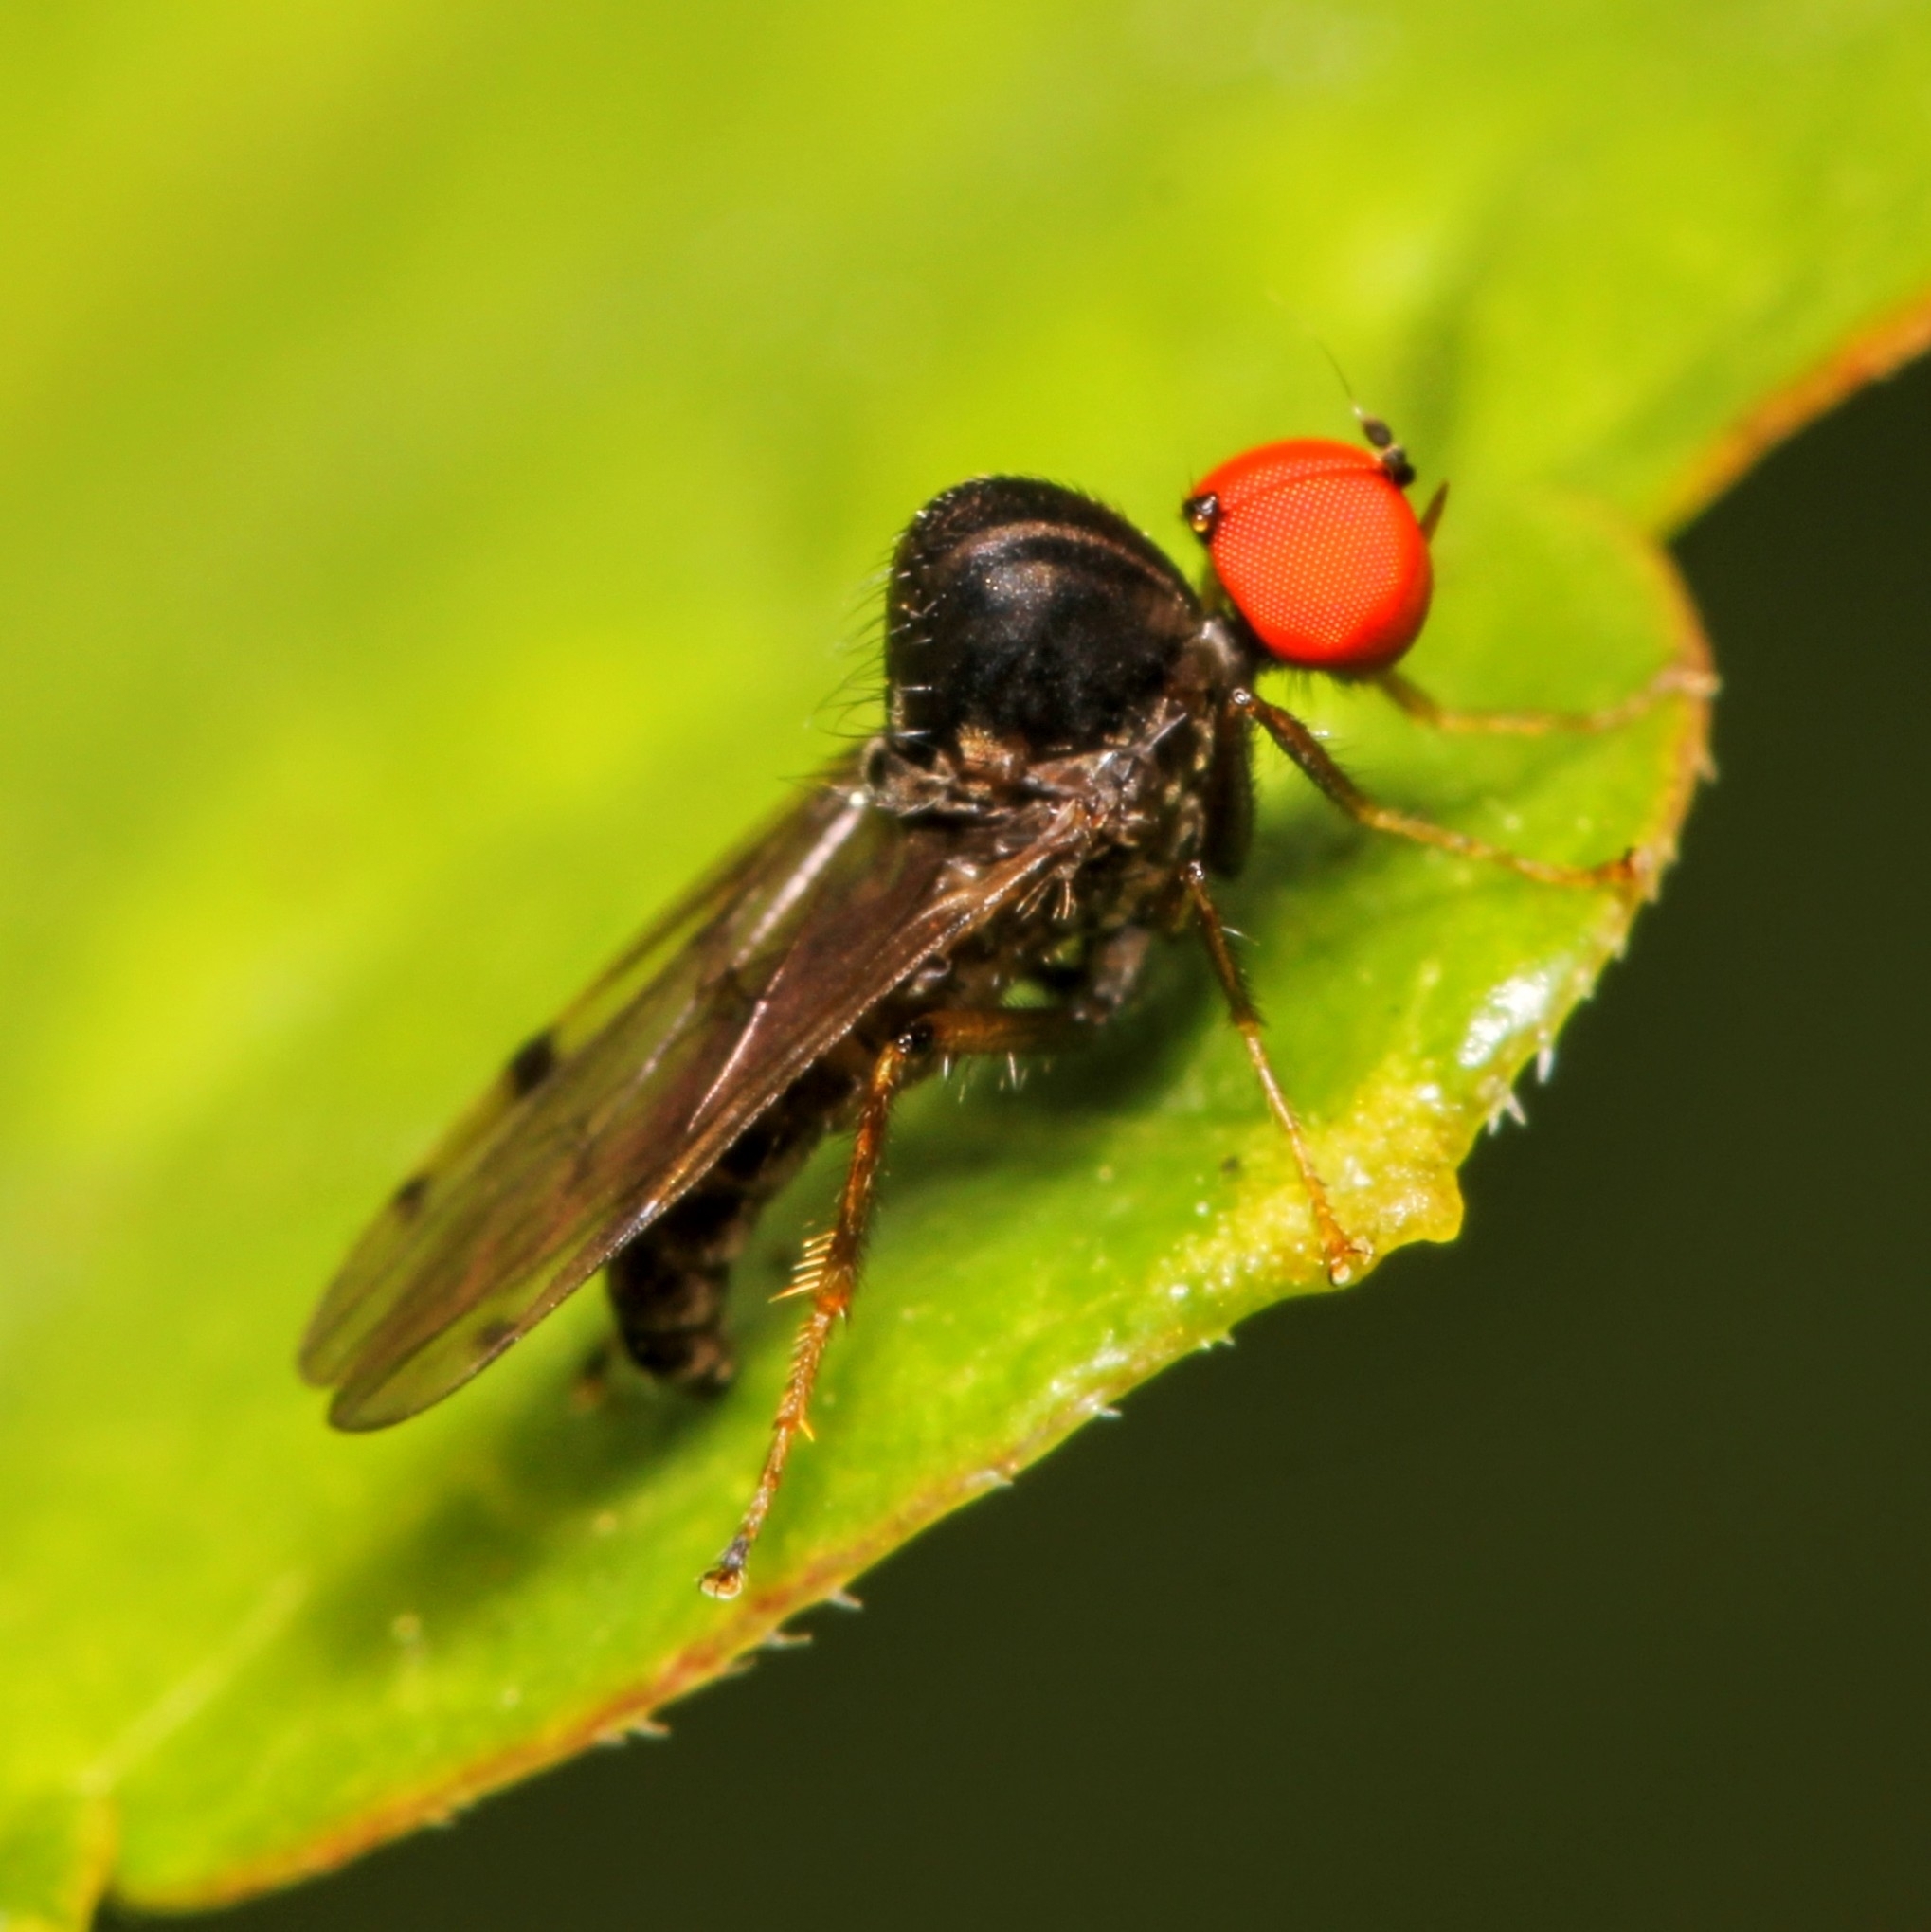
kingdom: Animalia
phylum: Arthropoda
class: Insecta
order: Diptera
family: Hybotidae
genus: Syneches
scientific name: Syneches simplex
